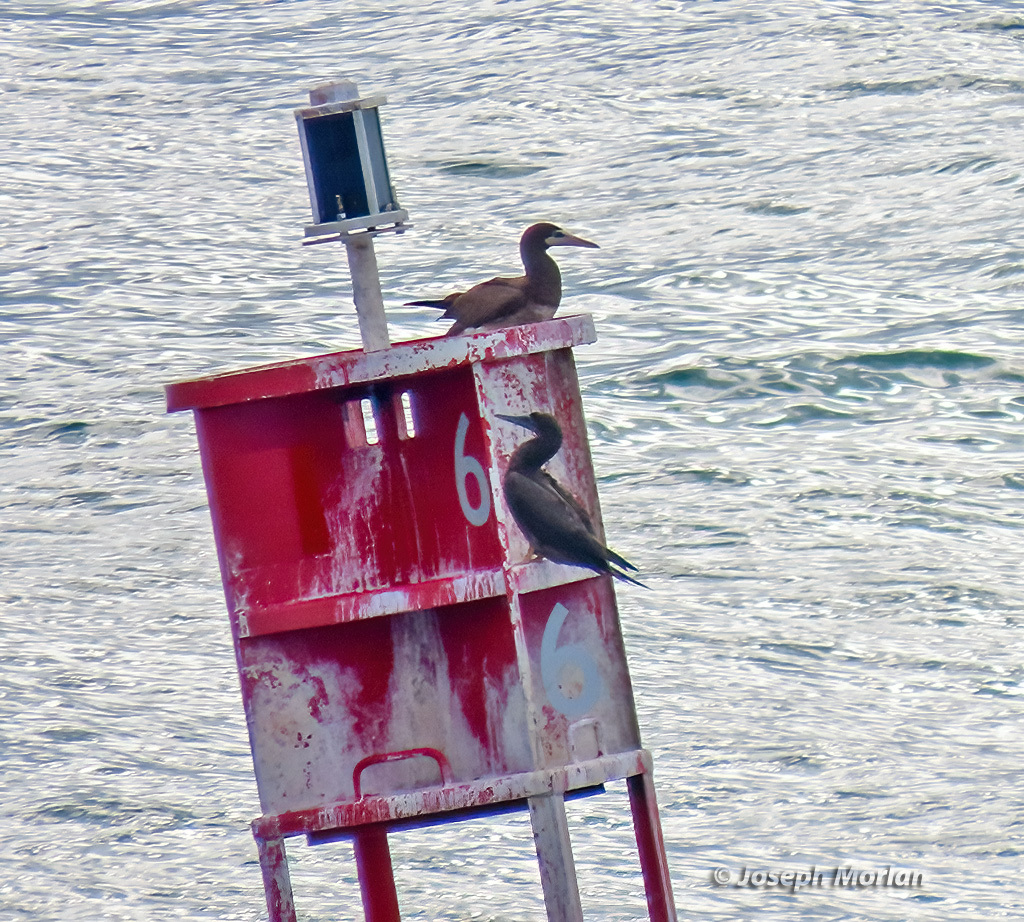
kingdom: Animalia
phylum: Chordata
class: Aves
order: Suliformes
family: Sulidae
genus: Sula
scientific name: Sula leucogaster
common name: Brown booby
